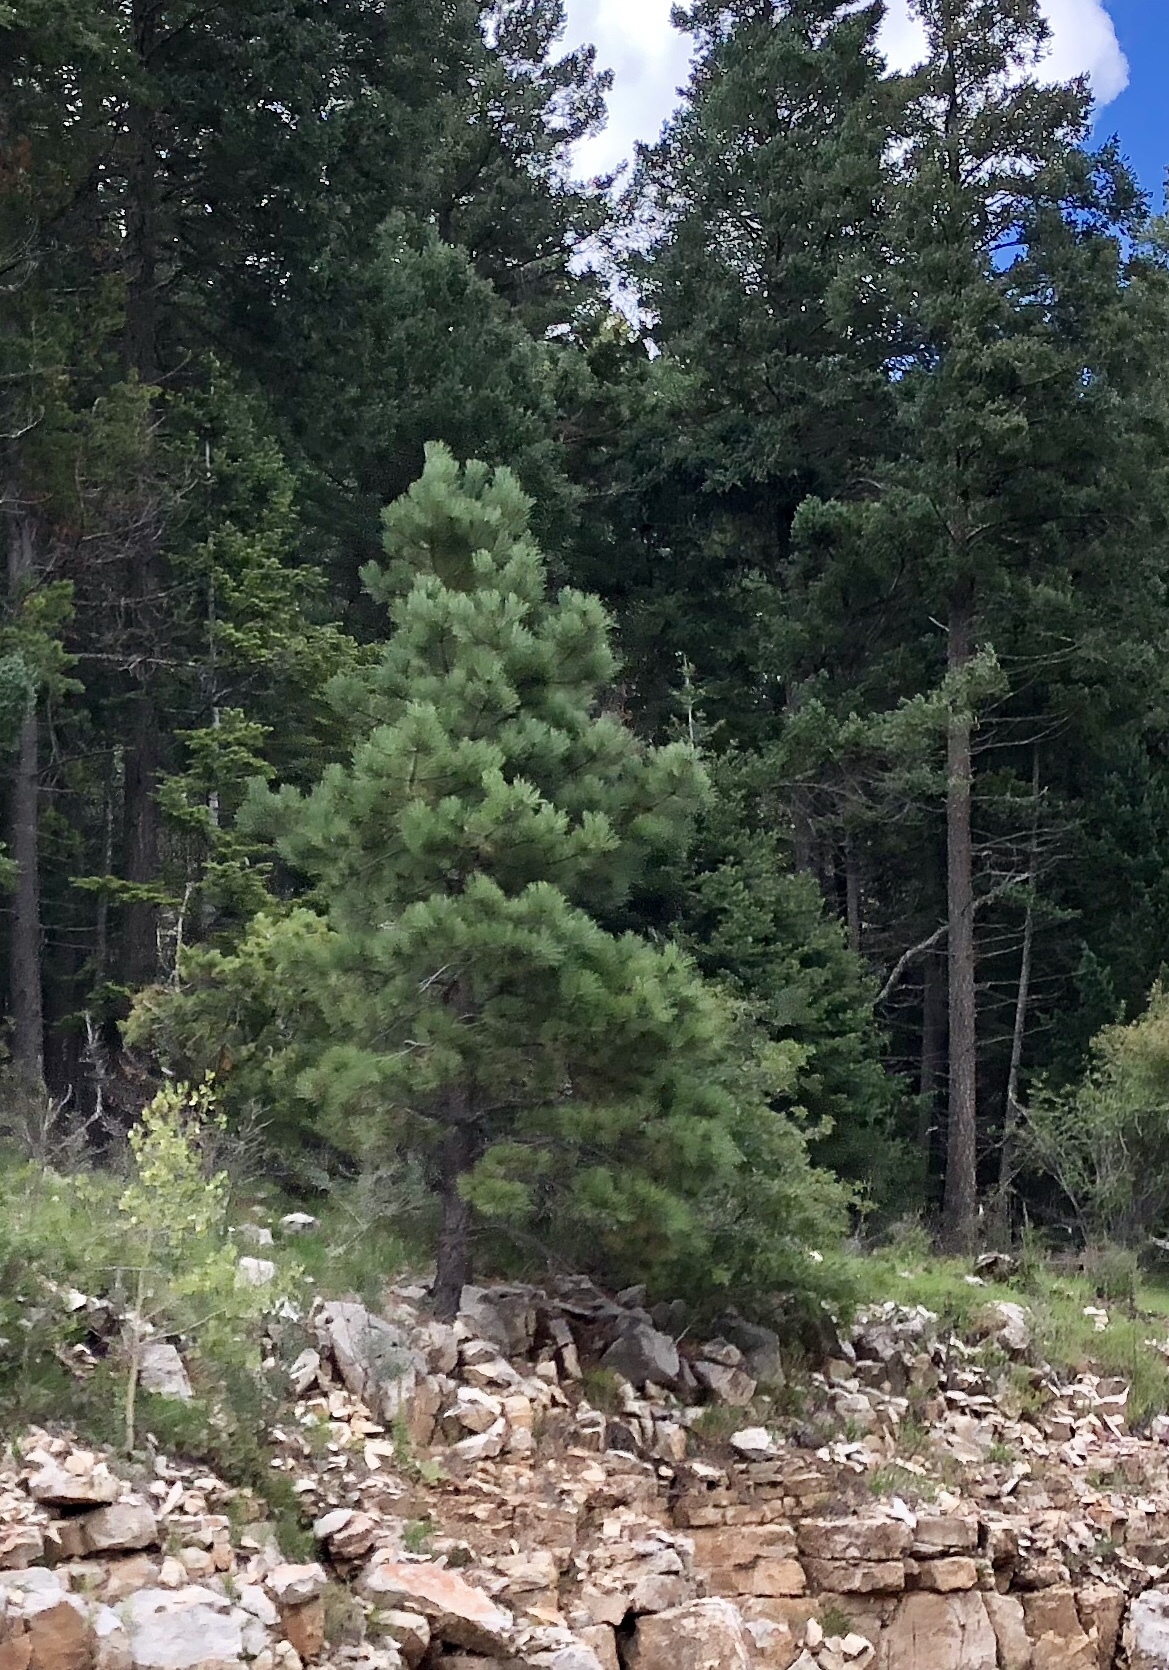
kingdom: Plantae
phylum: Tracheophyta
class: Pinopsida
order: Pinales
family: Pinaceae
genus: Pinus
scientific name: Pinus ponderosa
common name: Western yellow-pine
